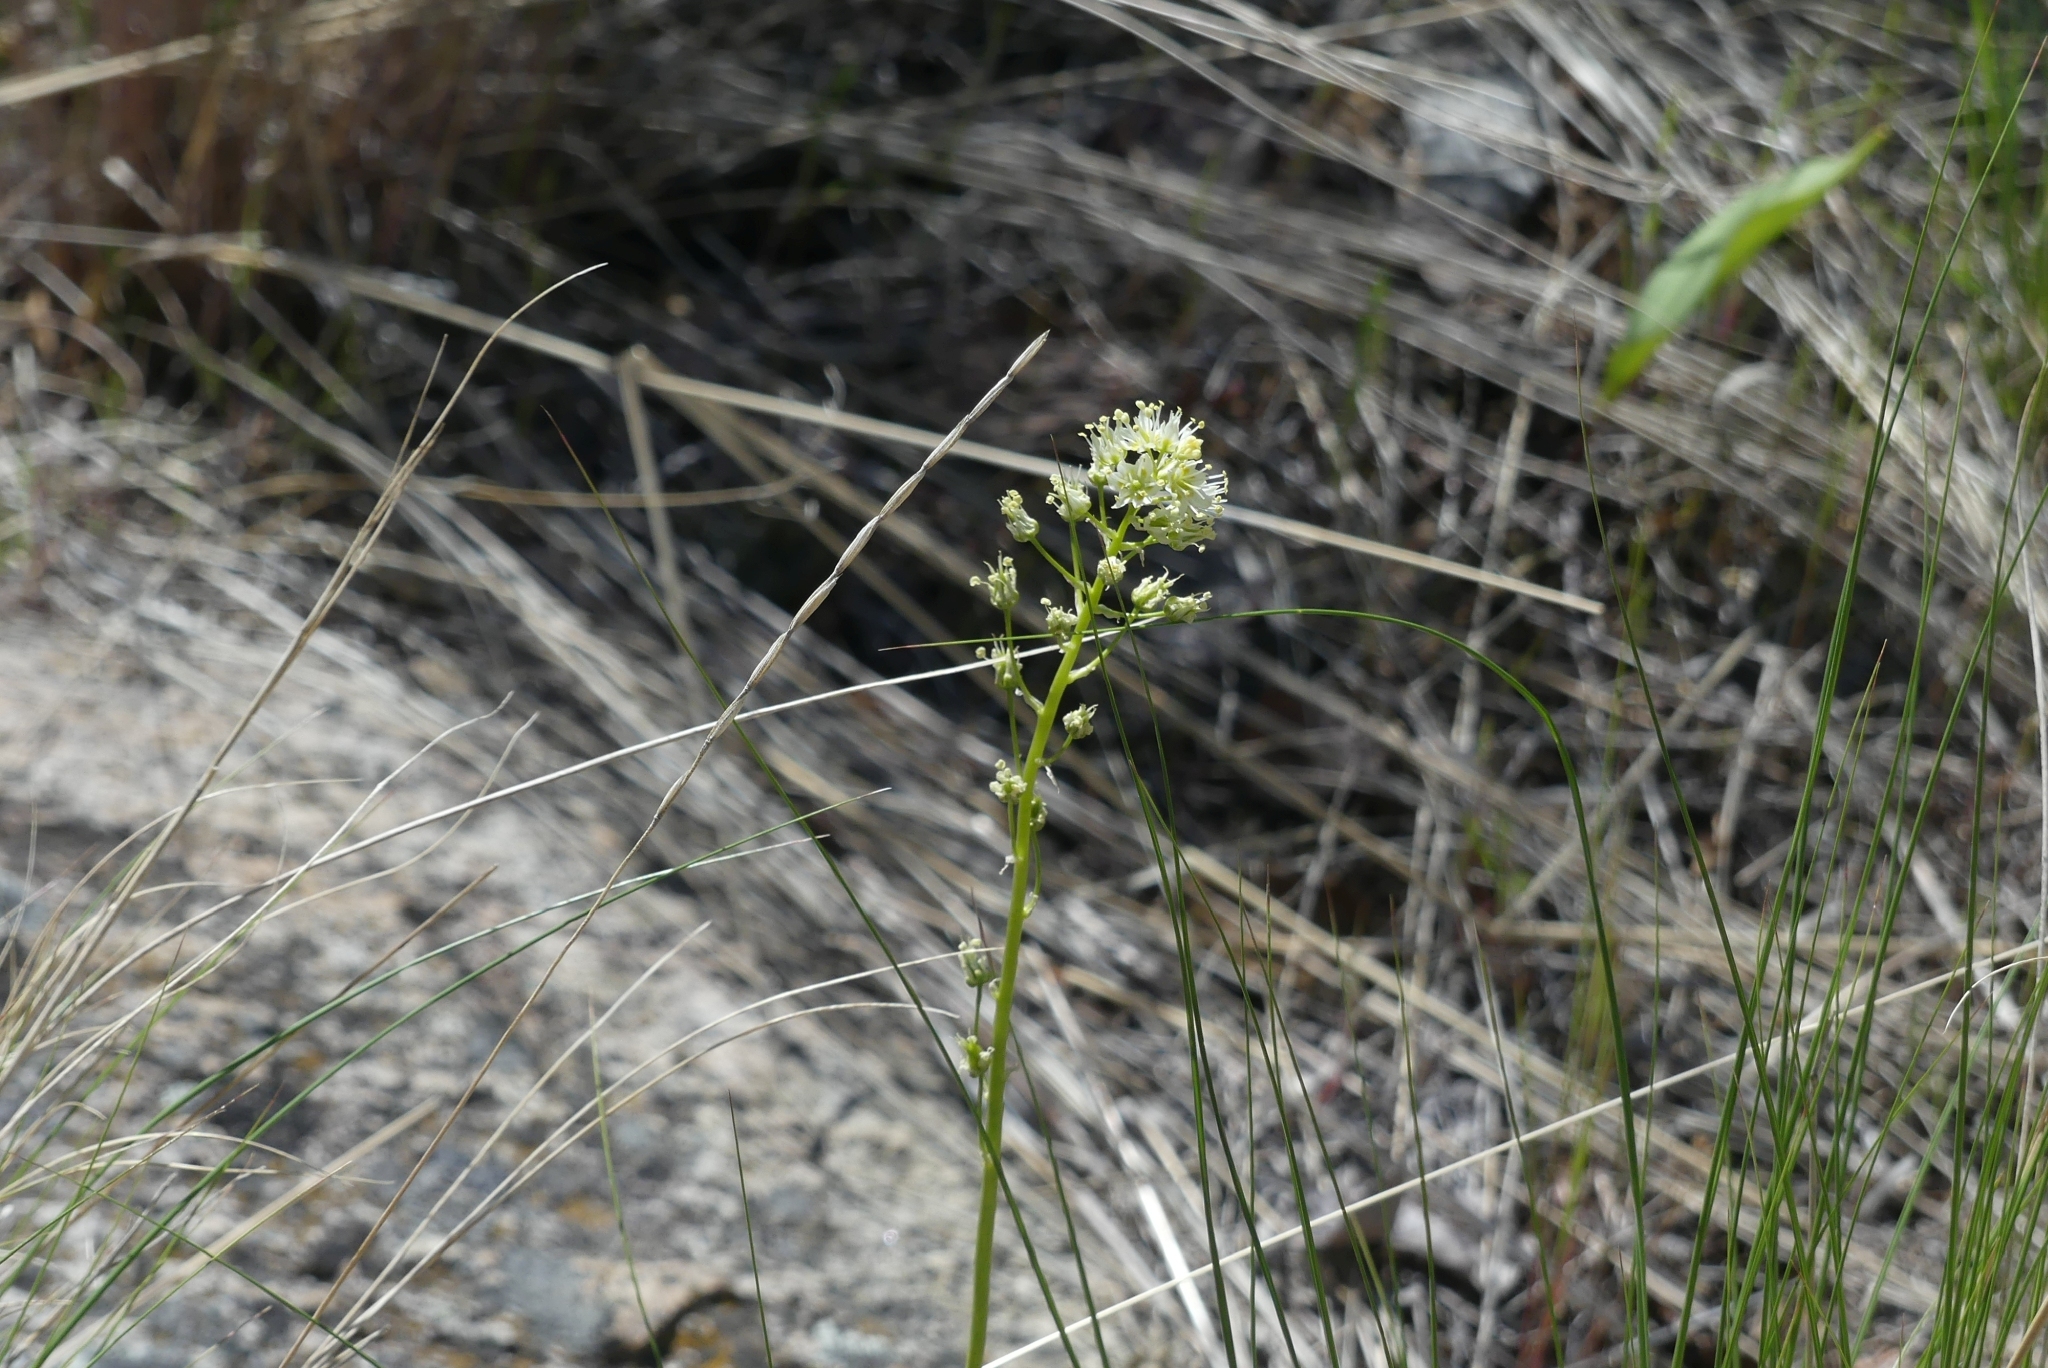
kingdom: Plantae
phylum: Tracheophyta
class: Liliopsida
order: Liliales
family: Melanthiaceae
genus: Toxicoscordion
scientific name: Toxicoscordion venenosum
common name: Meadow death camas
